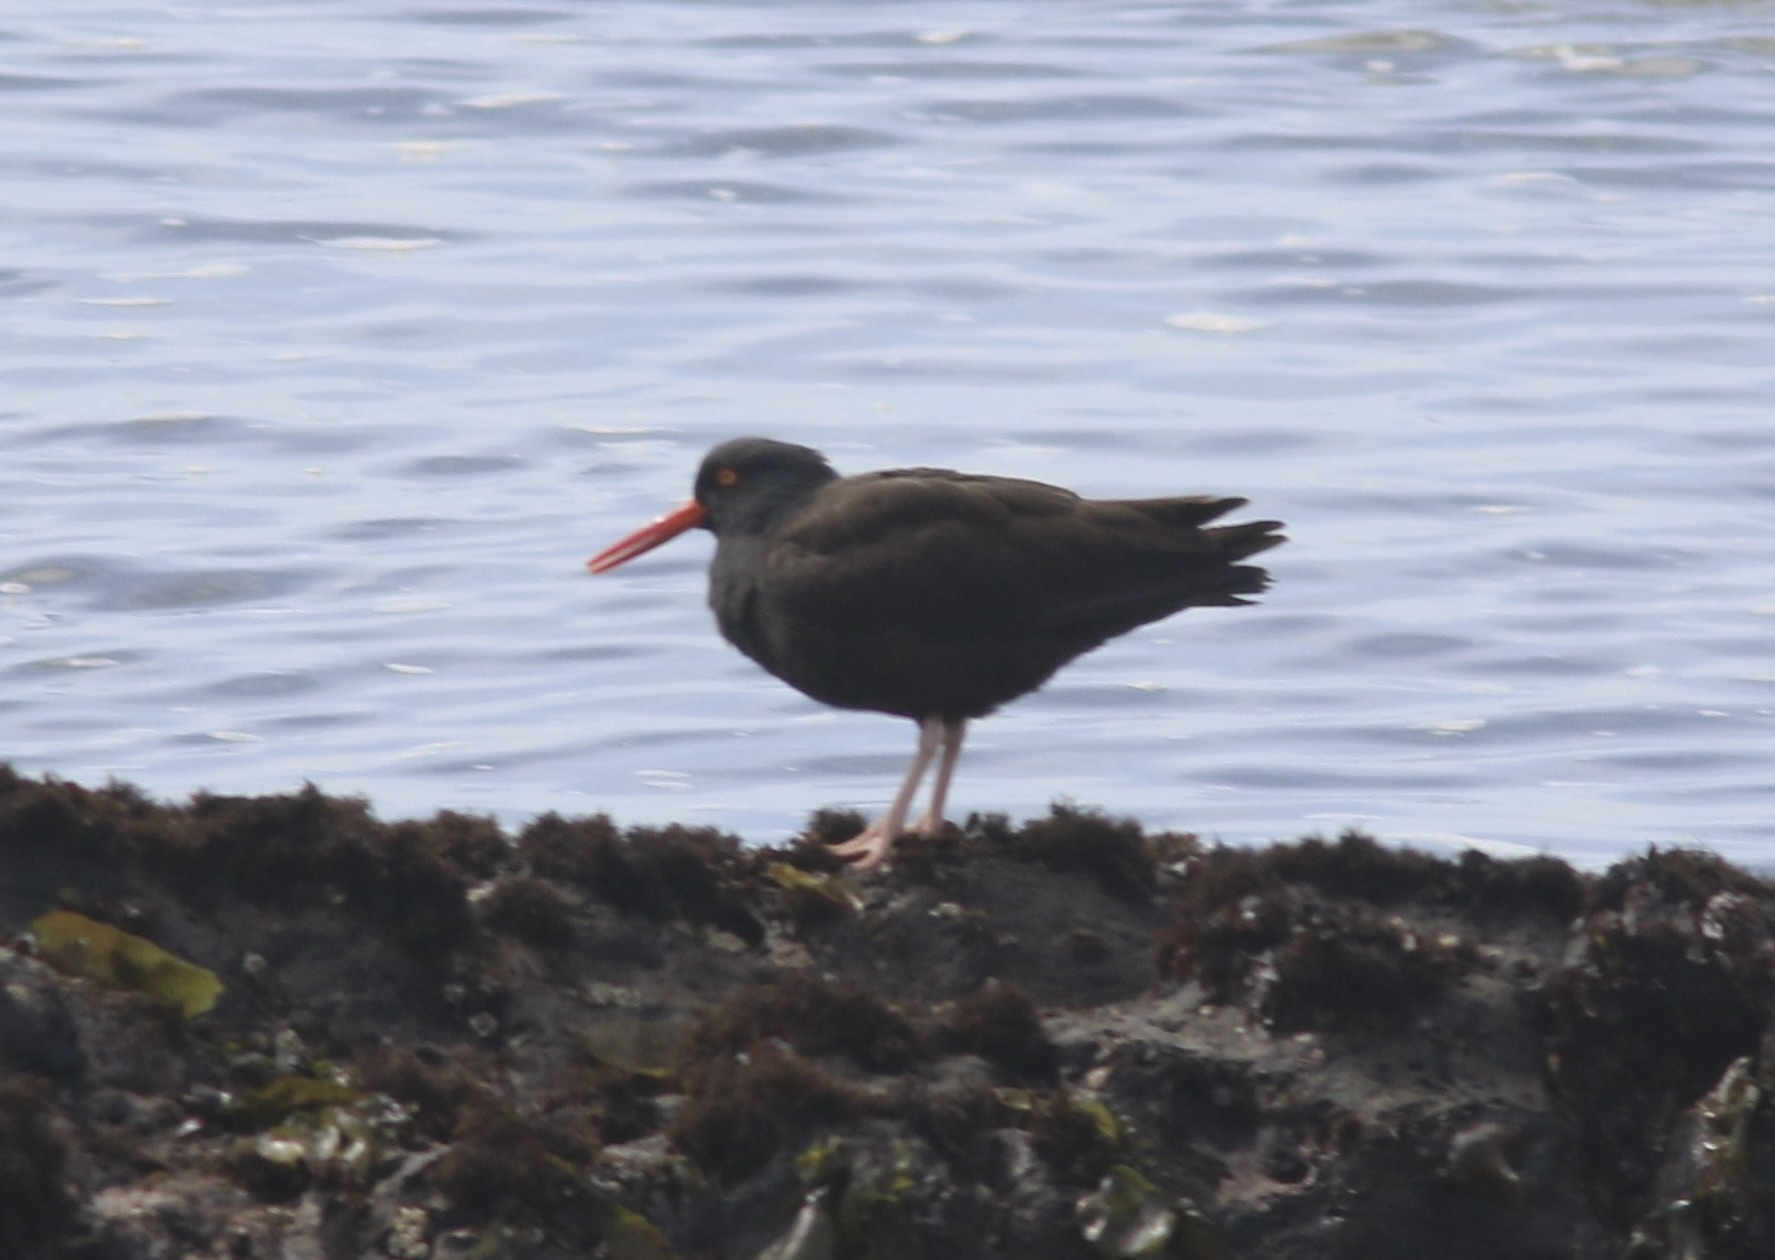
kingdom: Animalia
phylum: Chordata
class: Aves
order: Charadriiformes
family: Haematopodidae
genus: Haematopus
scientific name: Haematopus bachmani
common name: Black oystercatcher
